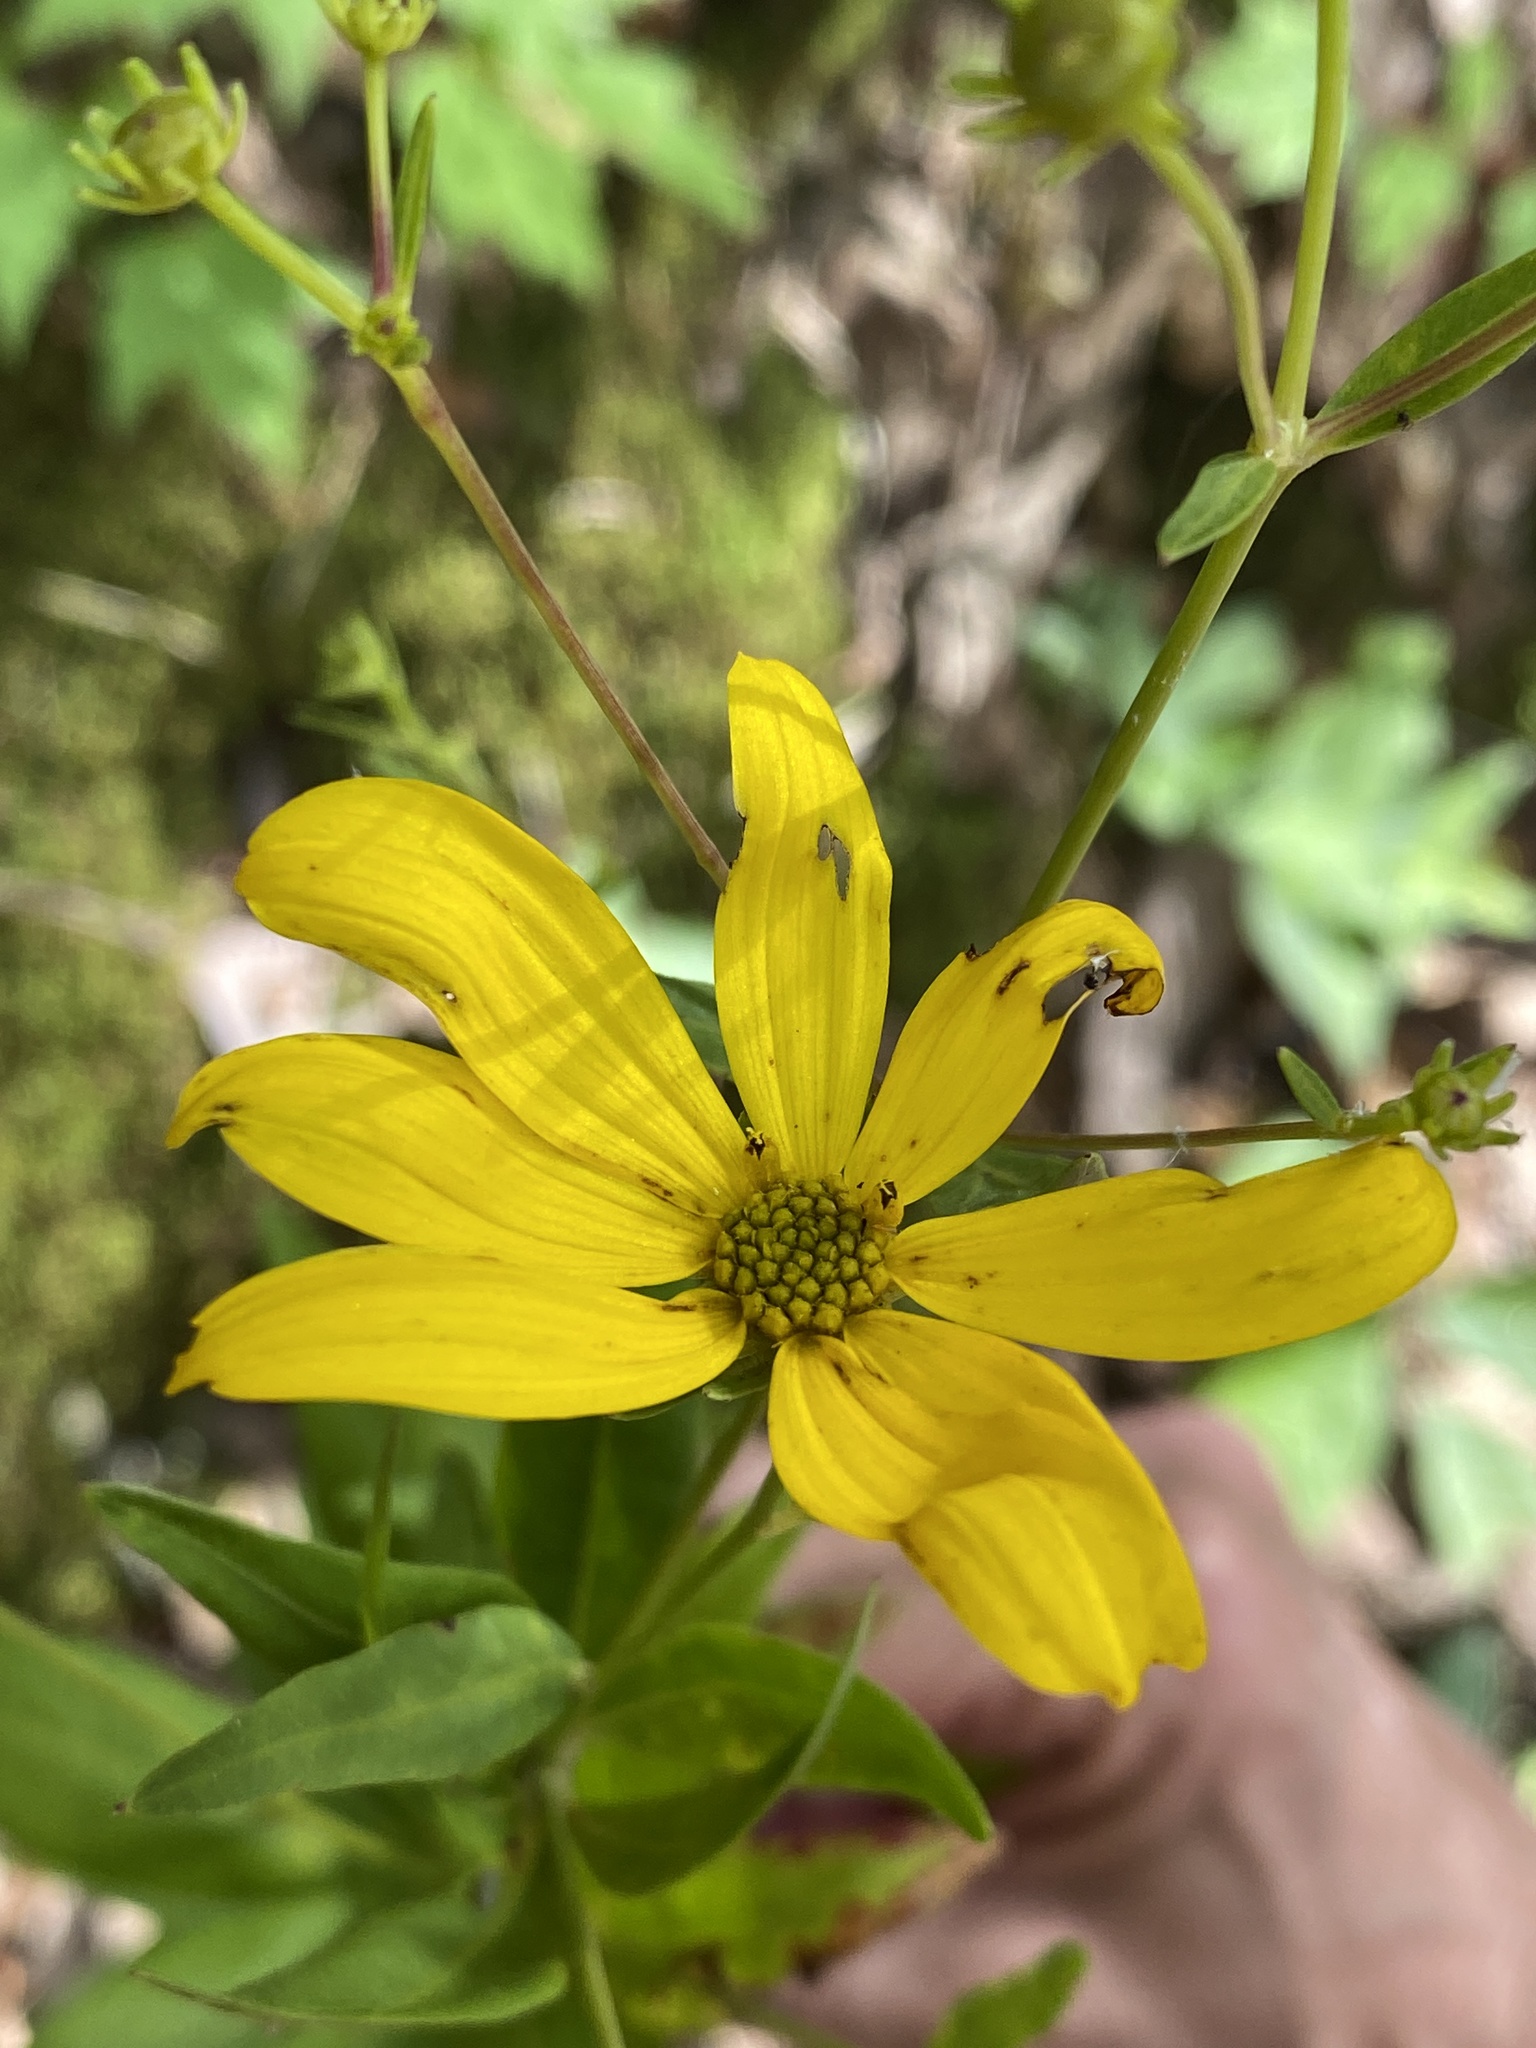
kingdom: Plantae
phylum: Tracheophyta
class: Magnoliopsida
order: Asterales
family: Asteraceae
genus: Coreopsis
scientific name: Coreopsis major
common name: Forest tickseed
